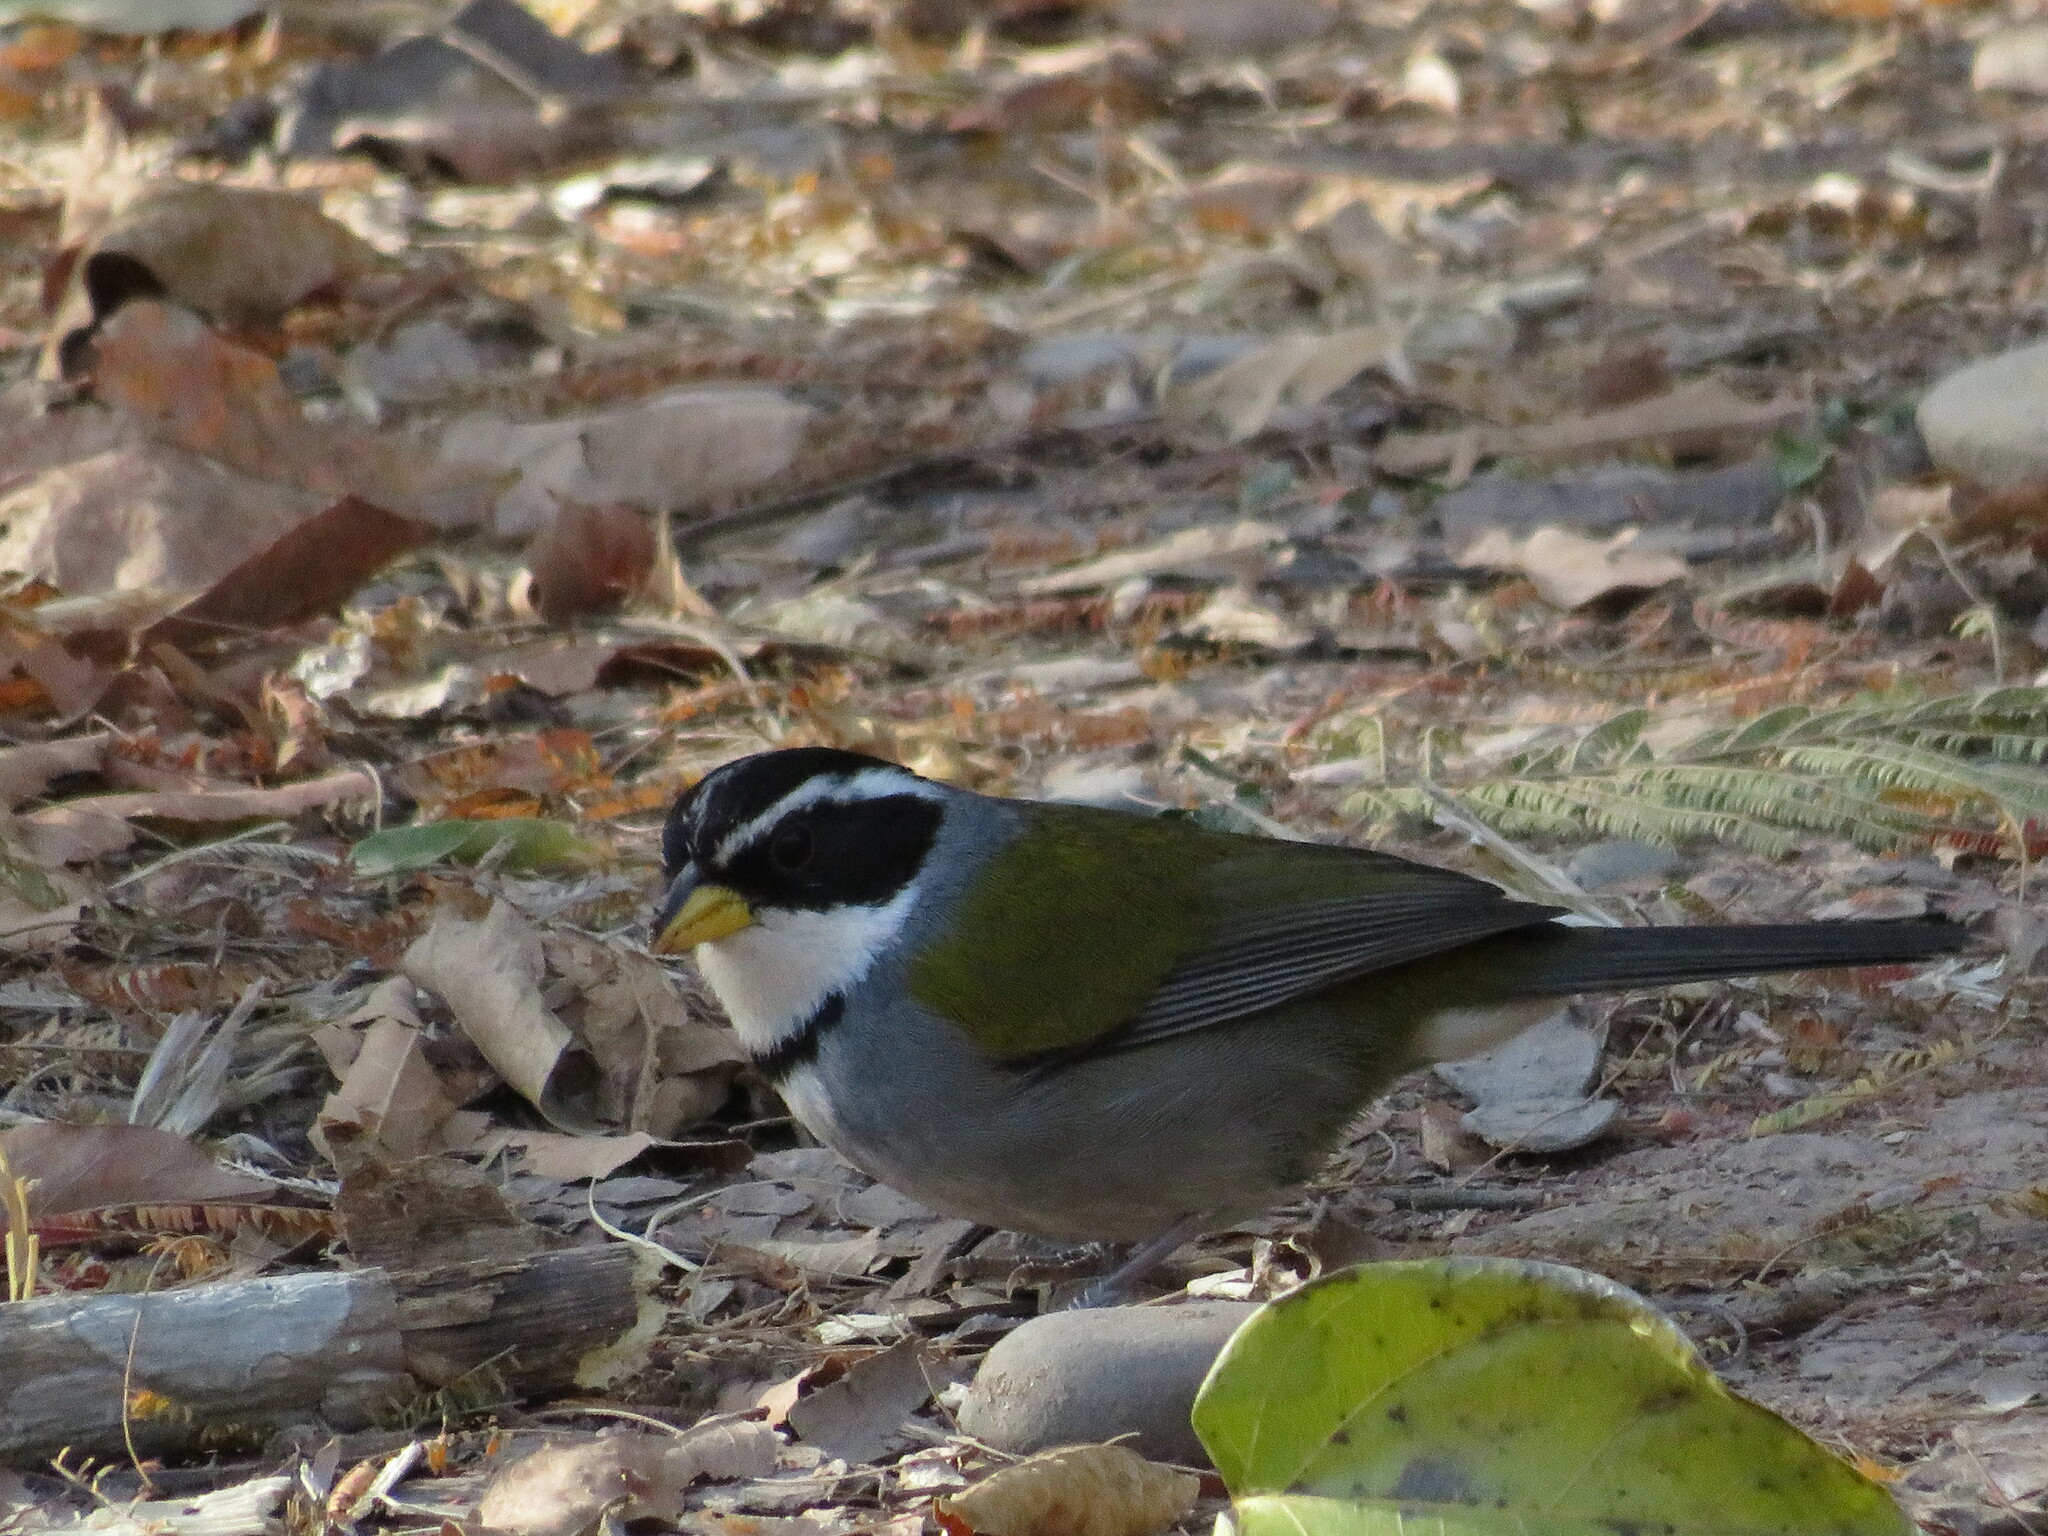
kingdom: Animalia
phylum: Chordata
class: Aves
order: Passeriformes
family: Passerellidae
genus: Arremon
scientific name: Arremon dorbignii
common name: Moss-backed sparrow
